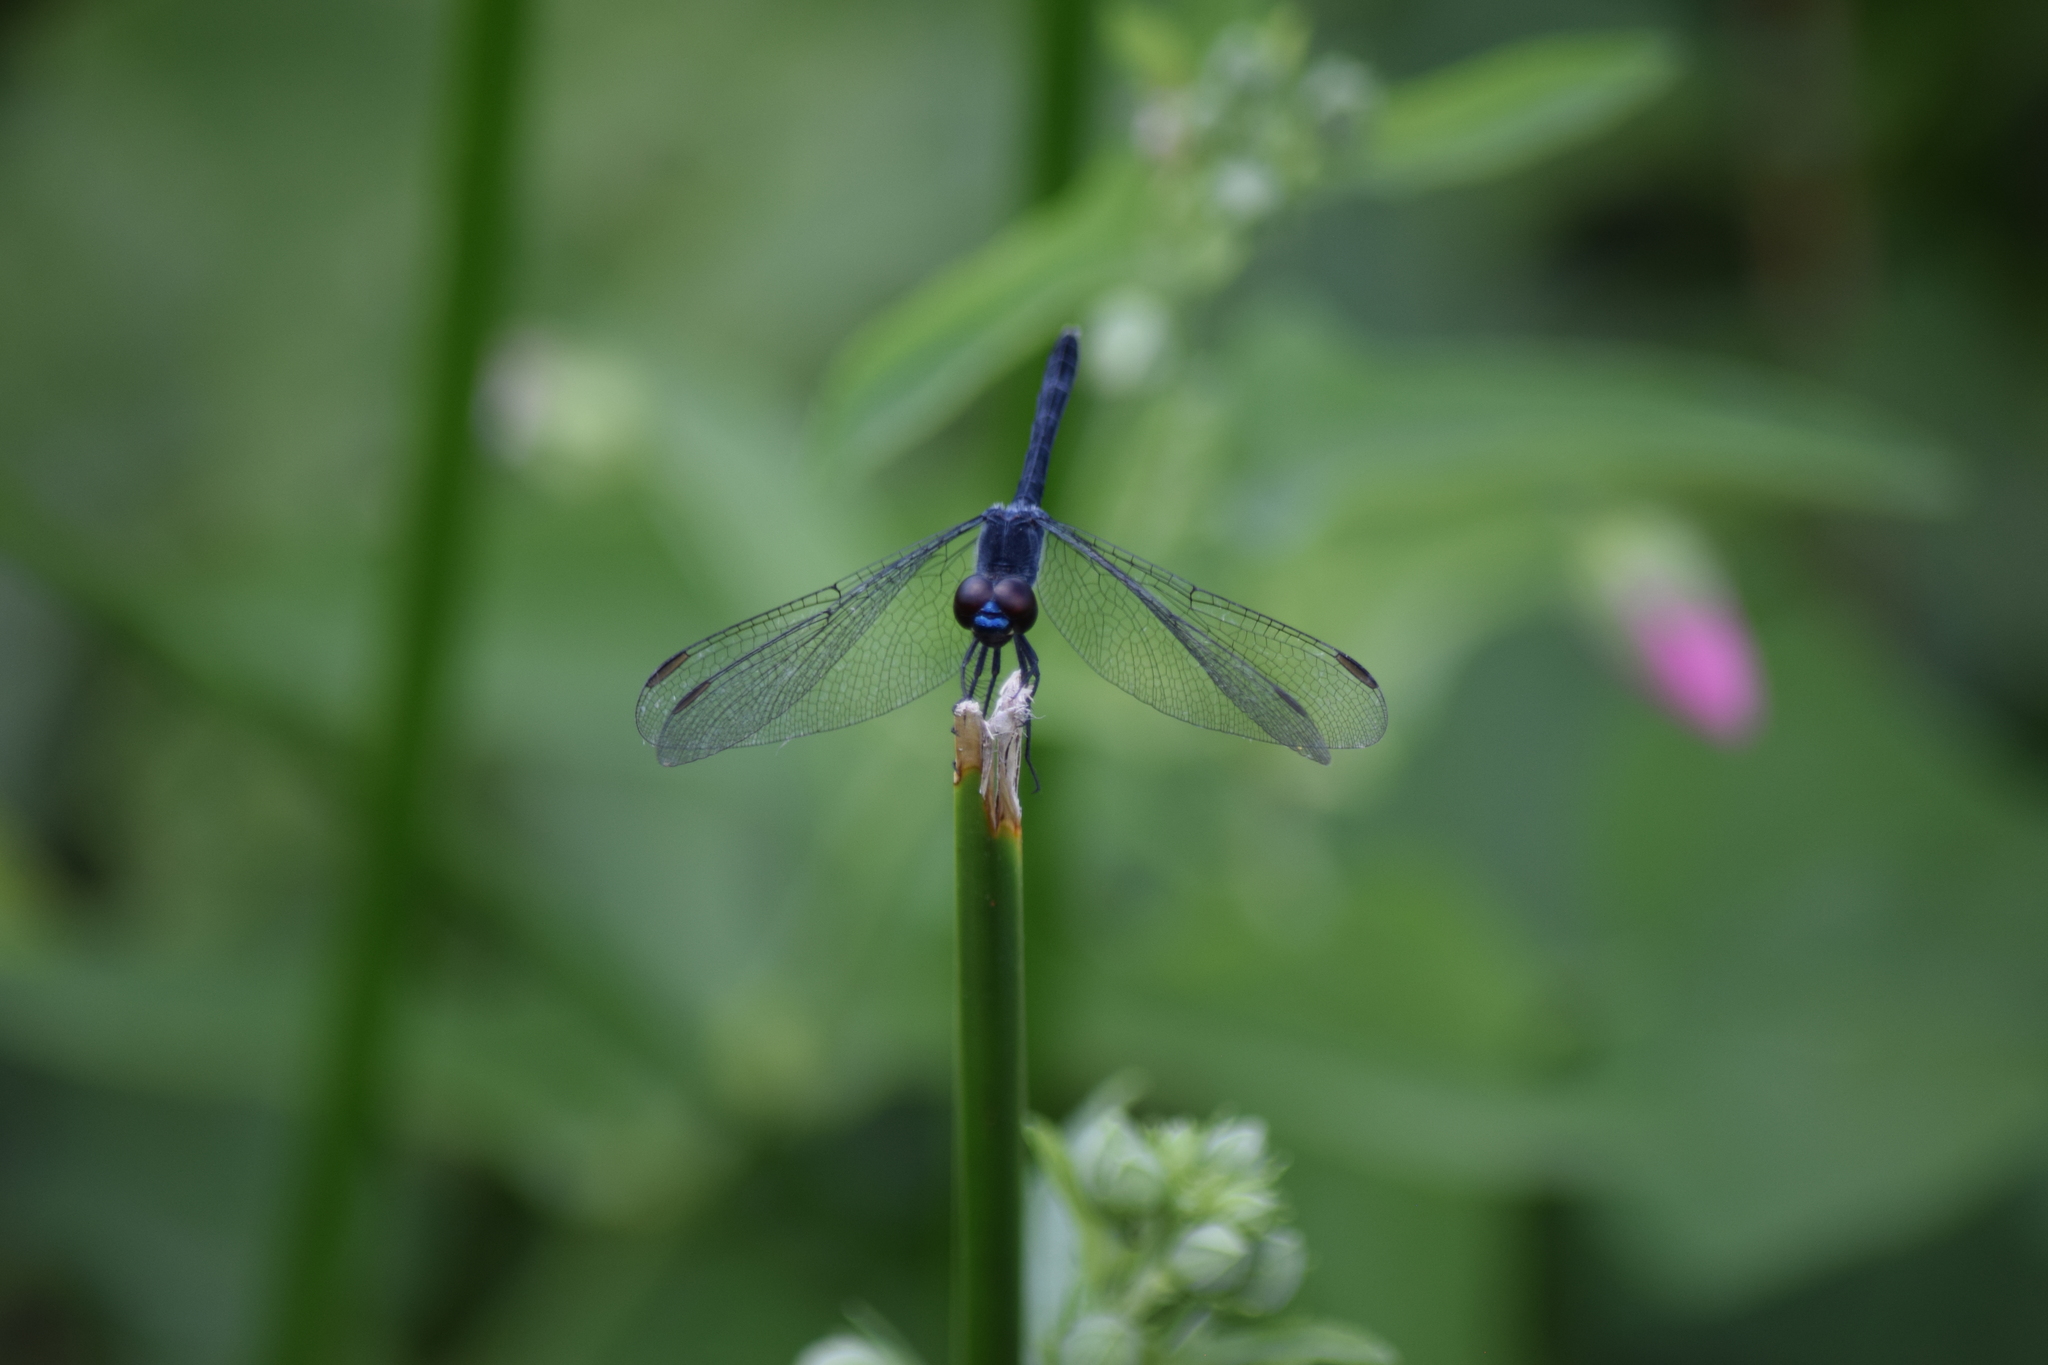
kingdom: Animalia
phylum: Arthropoda
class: Insecta
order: Odonata
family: Libellulidae
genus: Erythrodiplax
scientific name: Erythrodiplax berenice
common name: Seaside dragonlet
